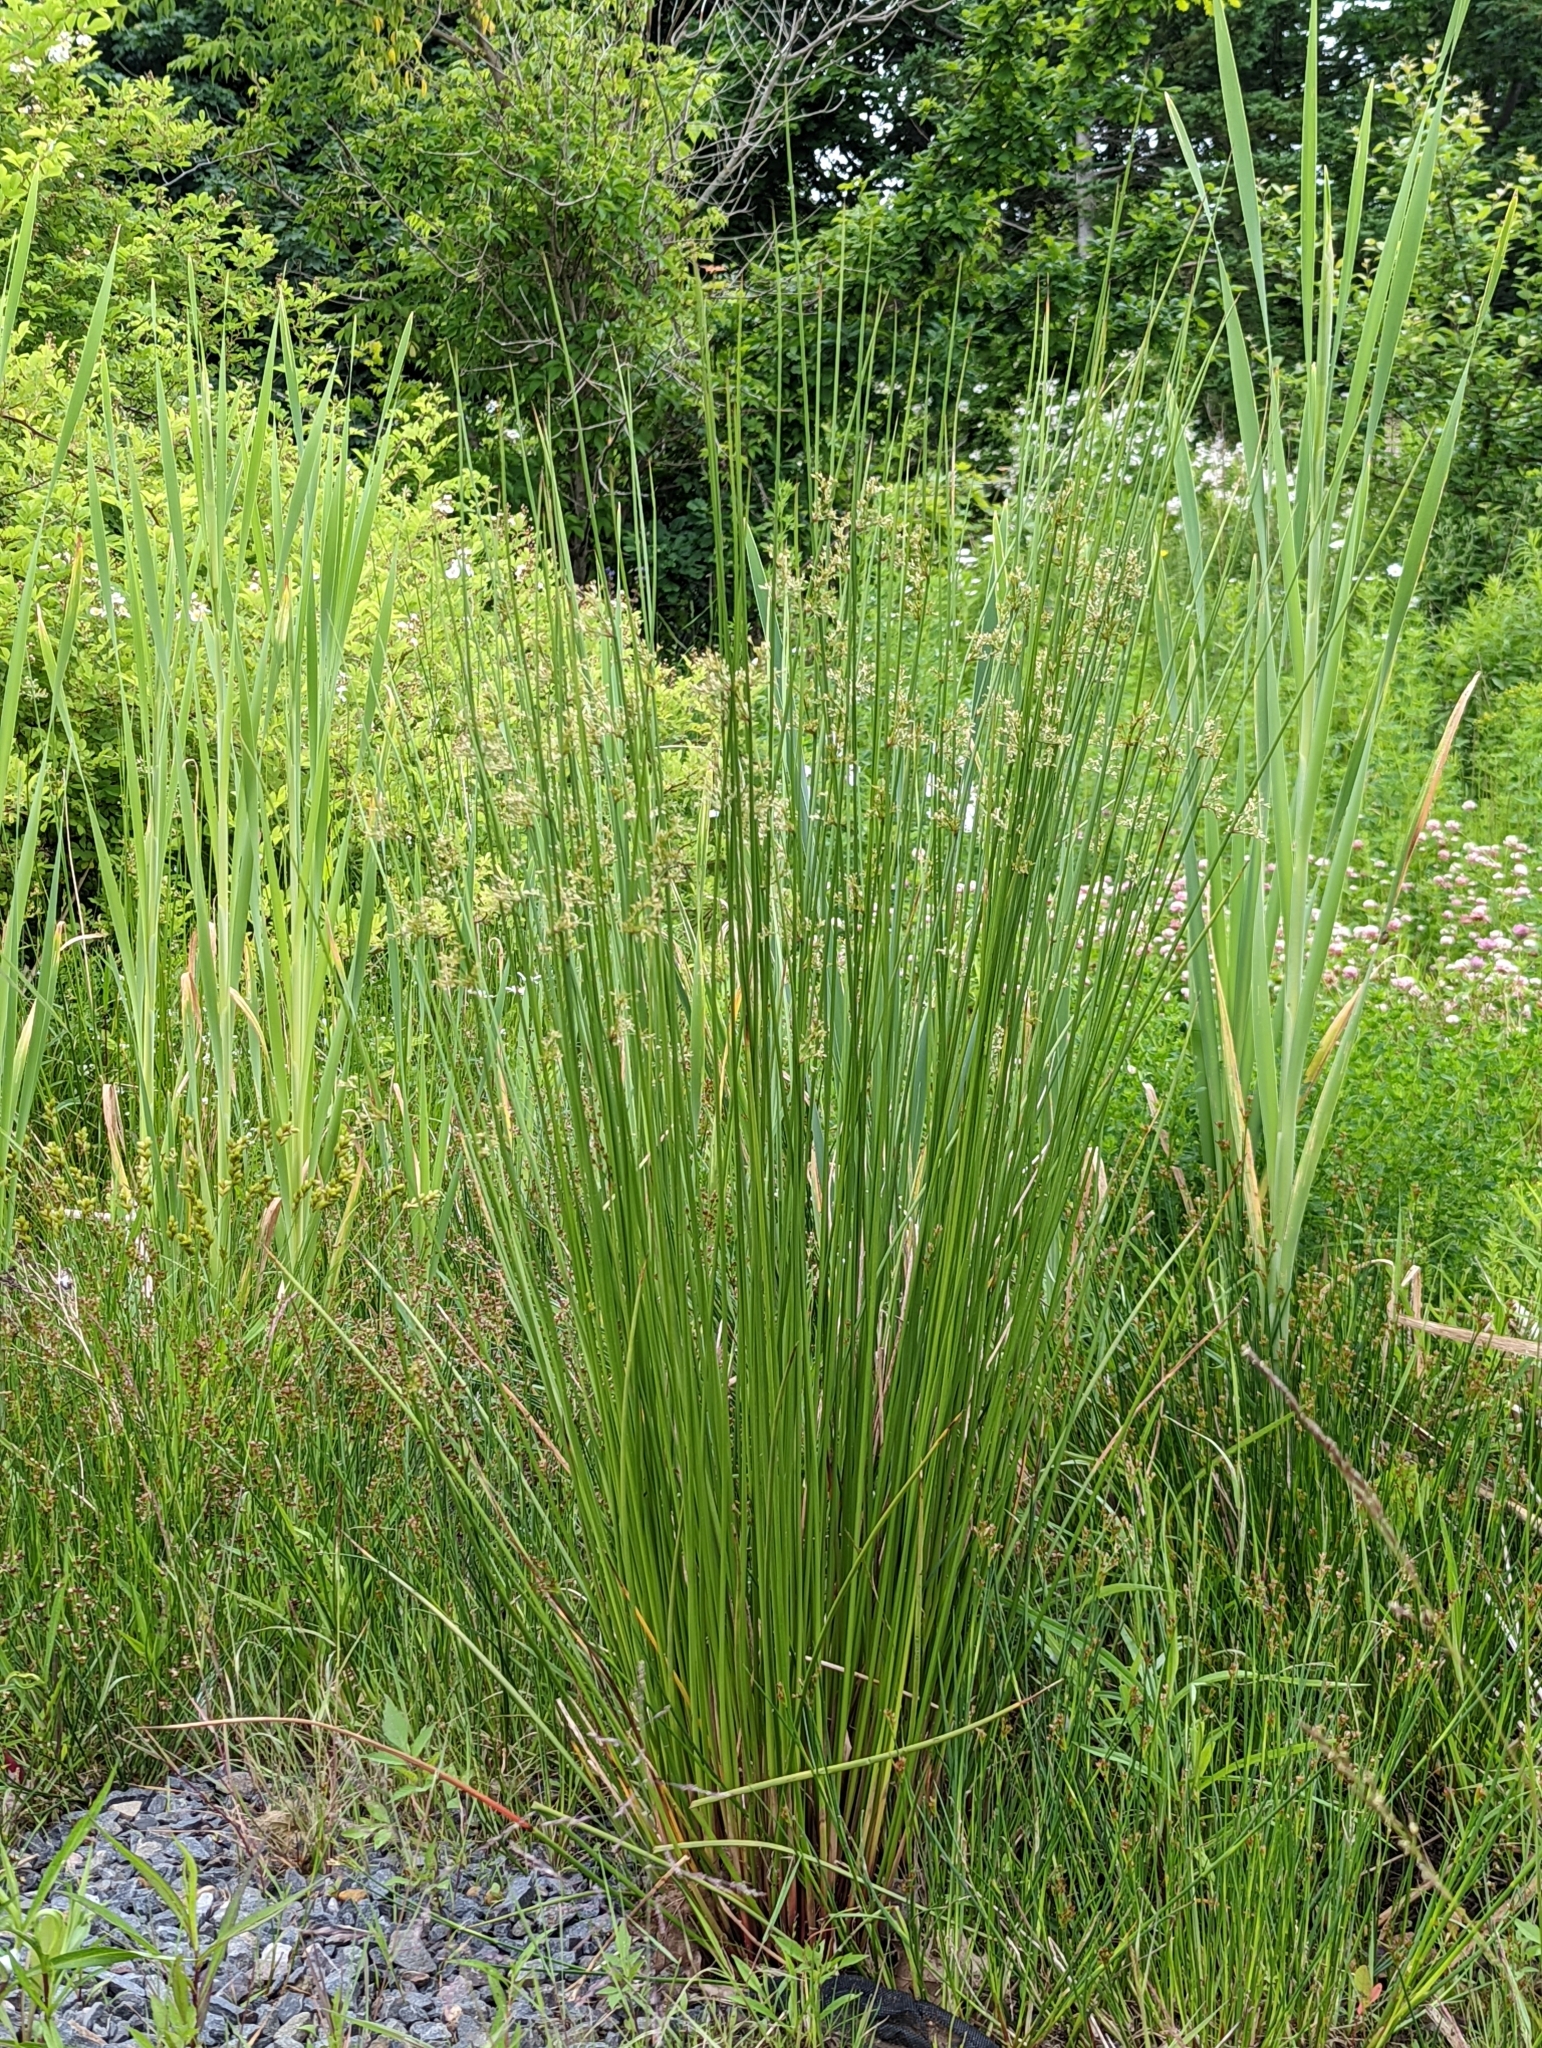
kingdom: Plantae
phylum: Tracheophyta
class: Liliopsida
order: Poales
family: Juncaceae
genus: Juncus
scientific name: Juncus effusus
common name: Soft rush
